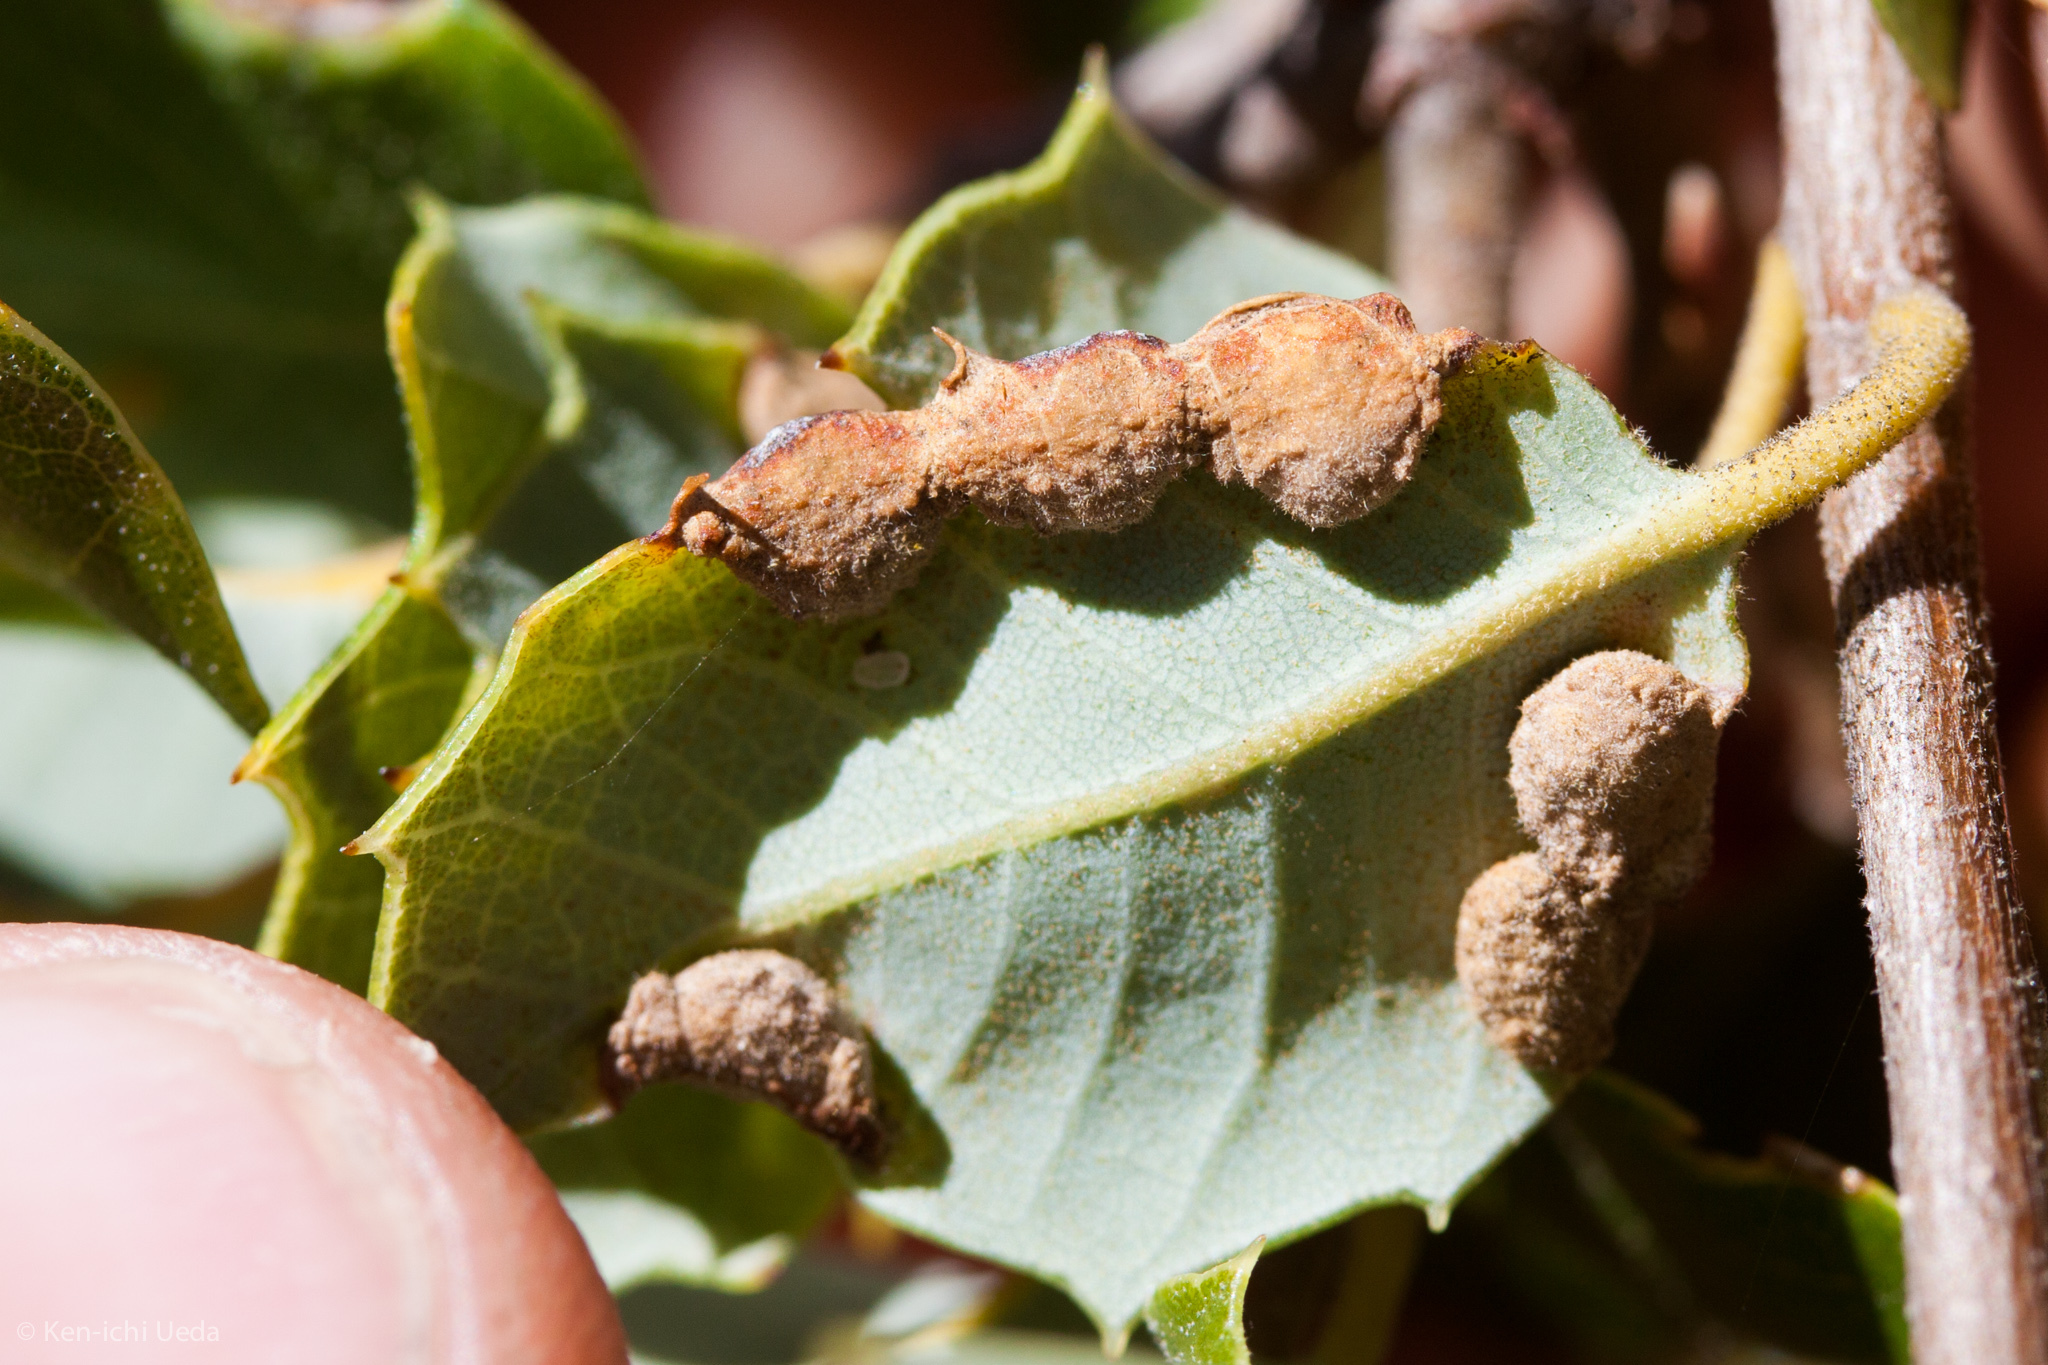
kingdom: Animalia
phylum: Arthropoda
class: Insecta
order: Diptera
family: Cecidomyiidae
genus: Dasineura
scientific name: Dasineura silvestrii
